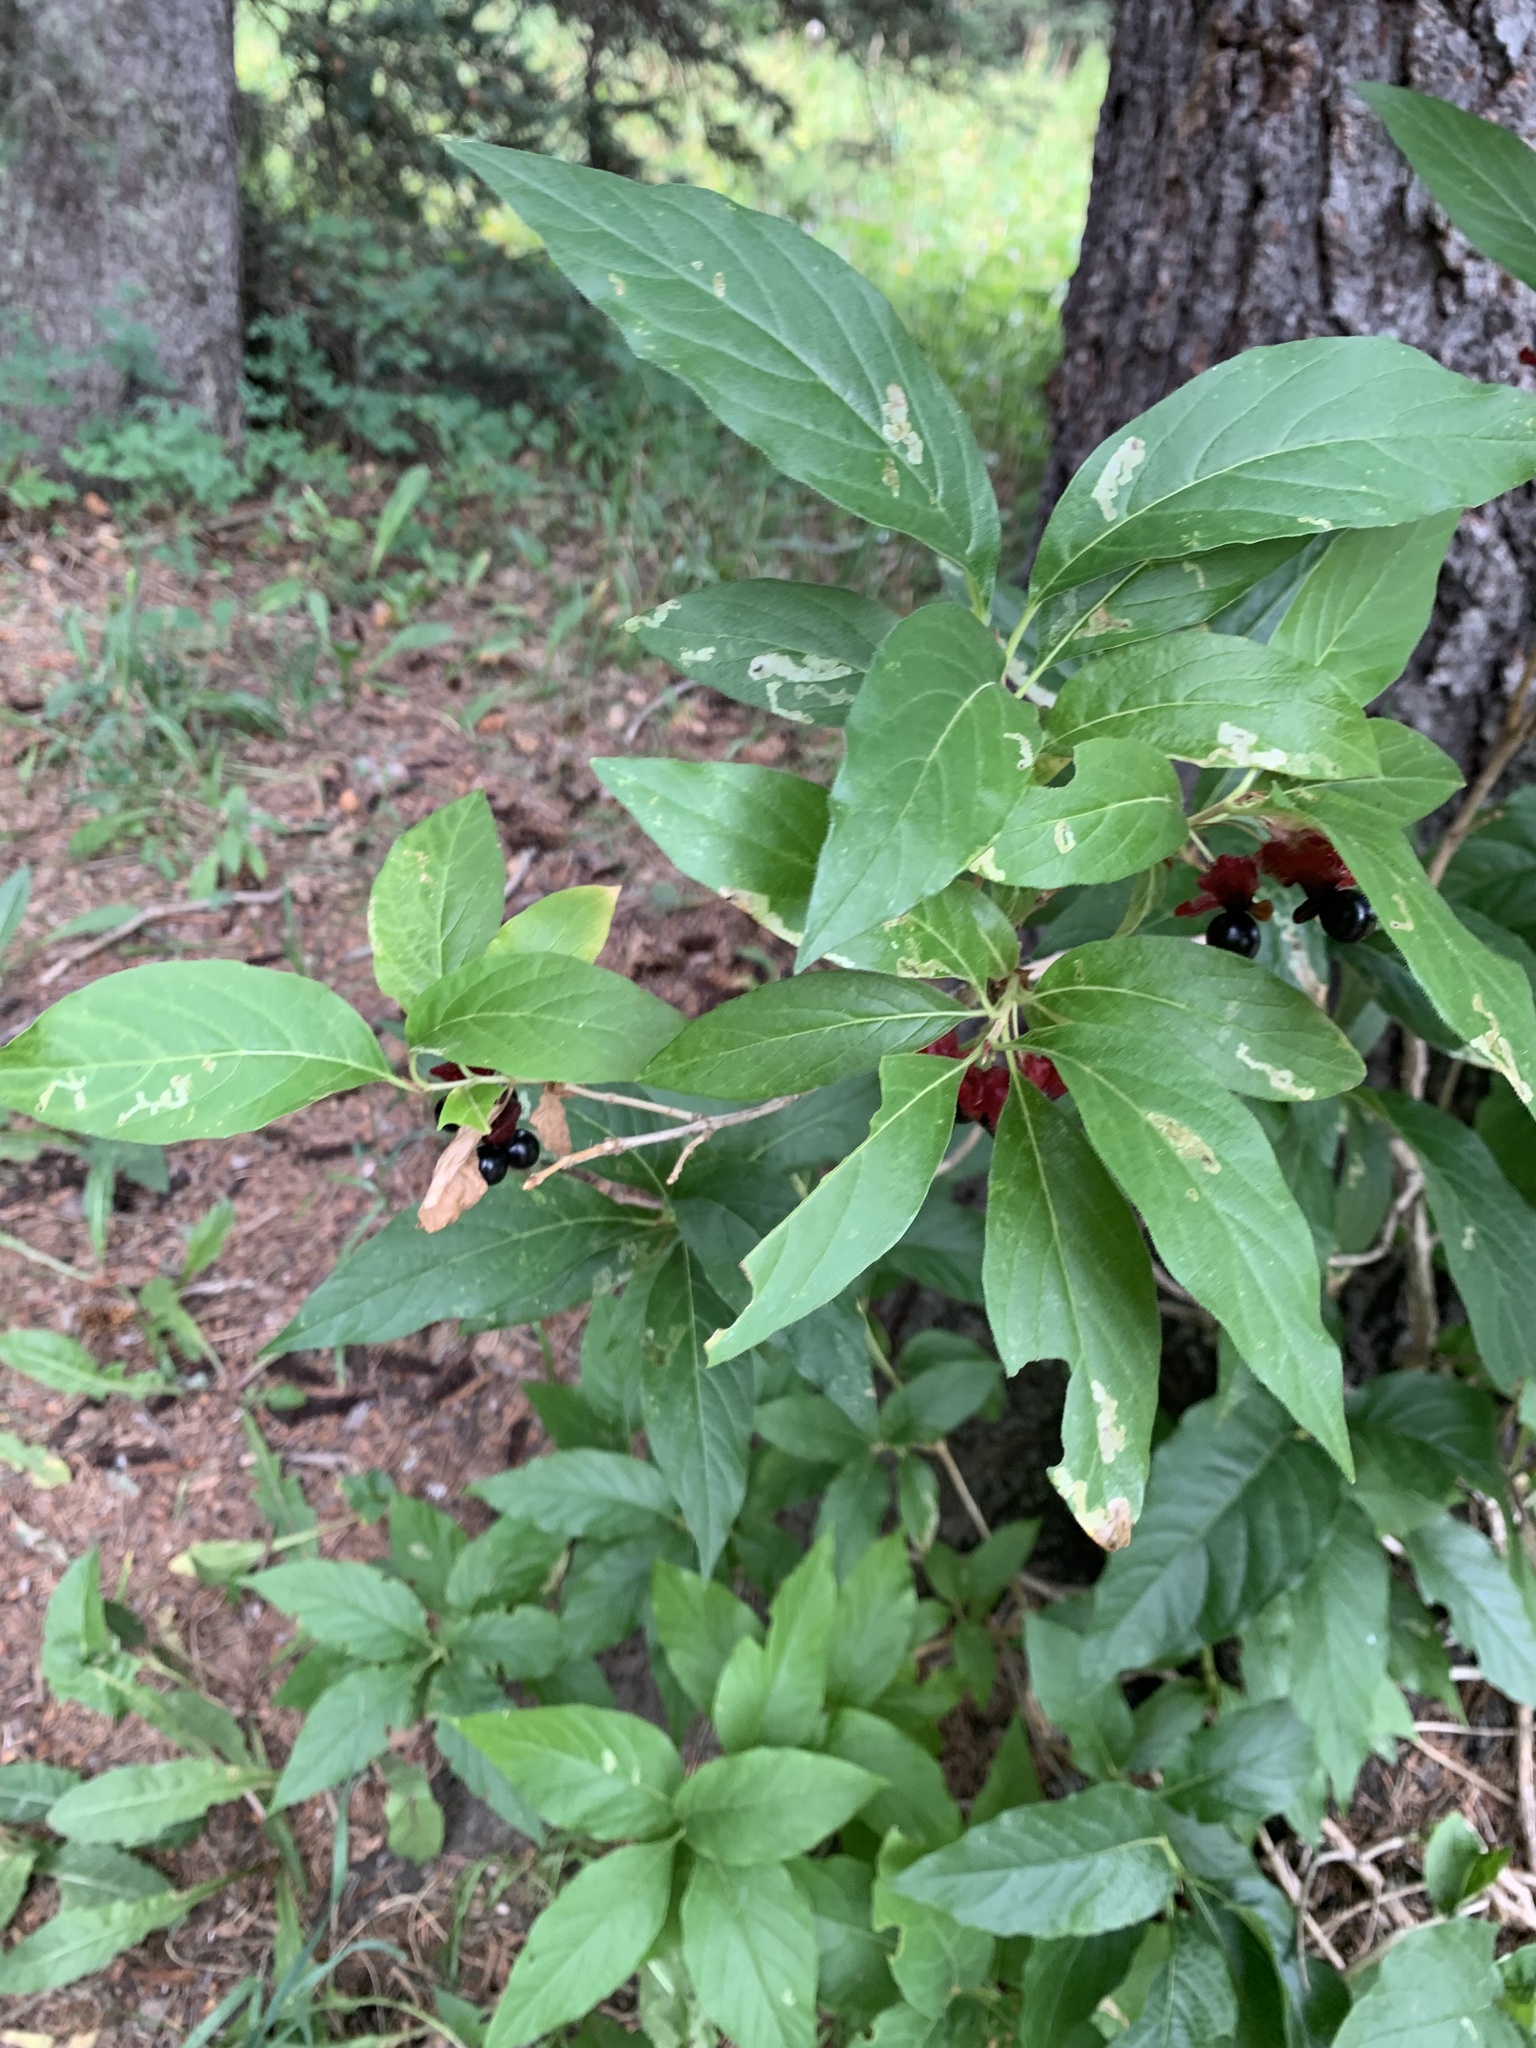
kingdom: Plantae
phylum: Tracheophyta
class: Magnoliopsida
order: Dipsacales
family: Caprifoliaceae
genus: Lonicera
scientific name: Lonicera involucrata
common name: Californian honeysuckle
